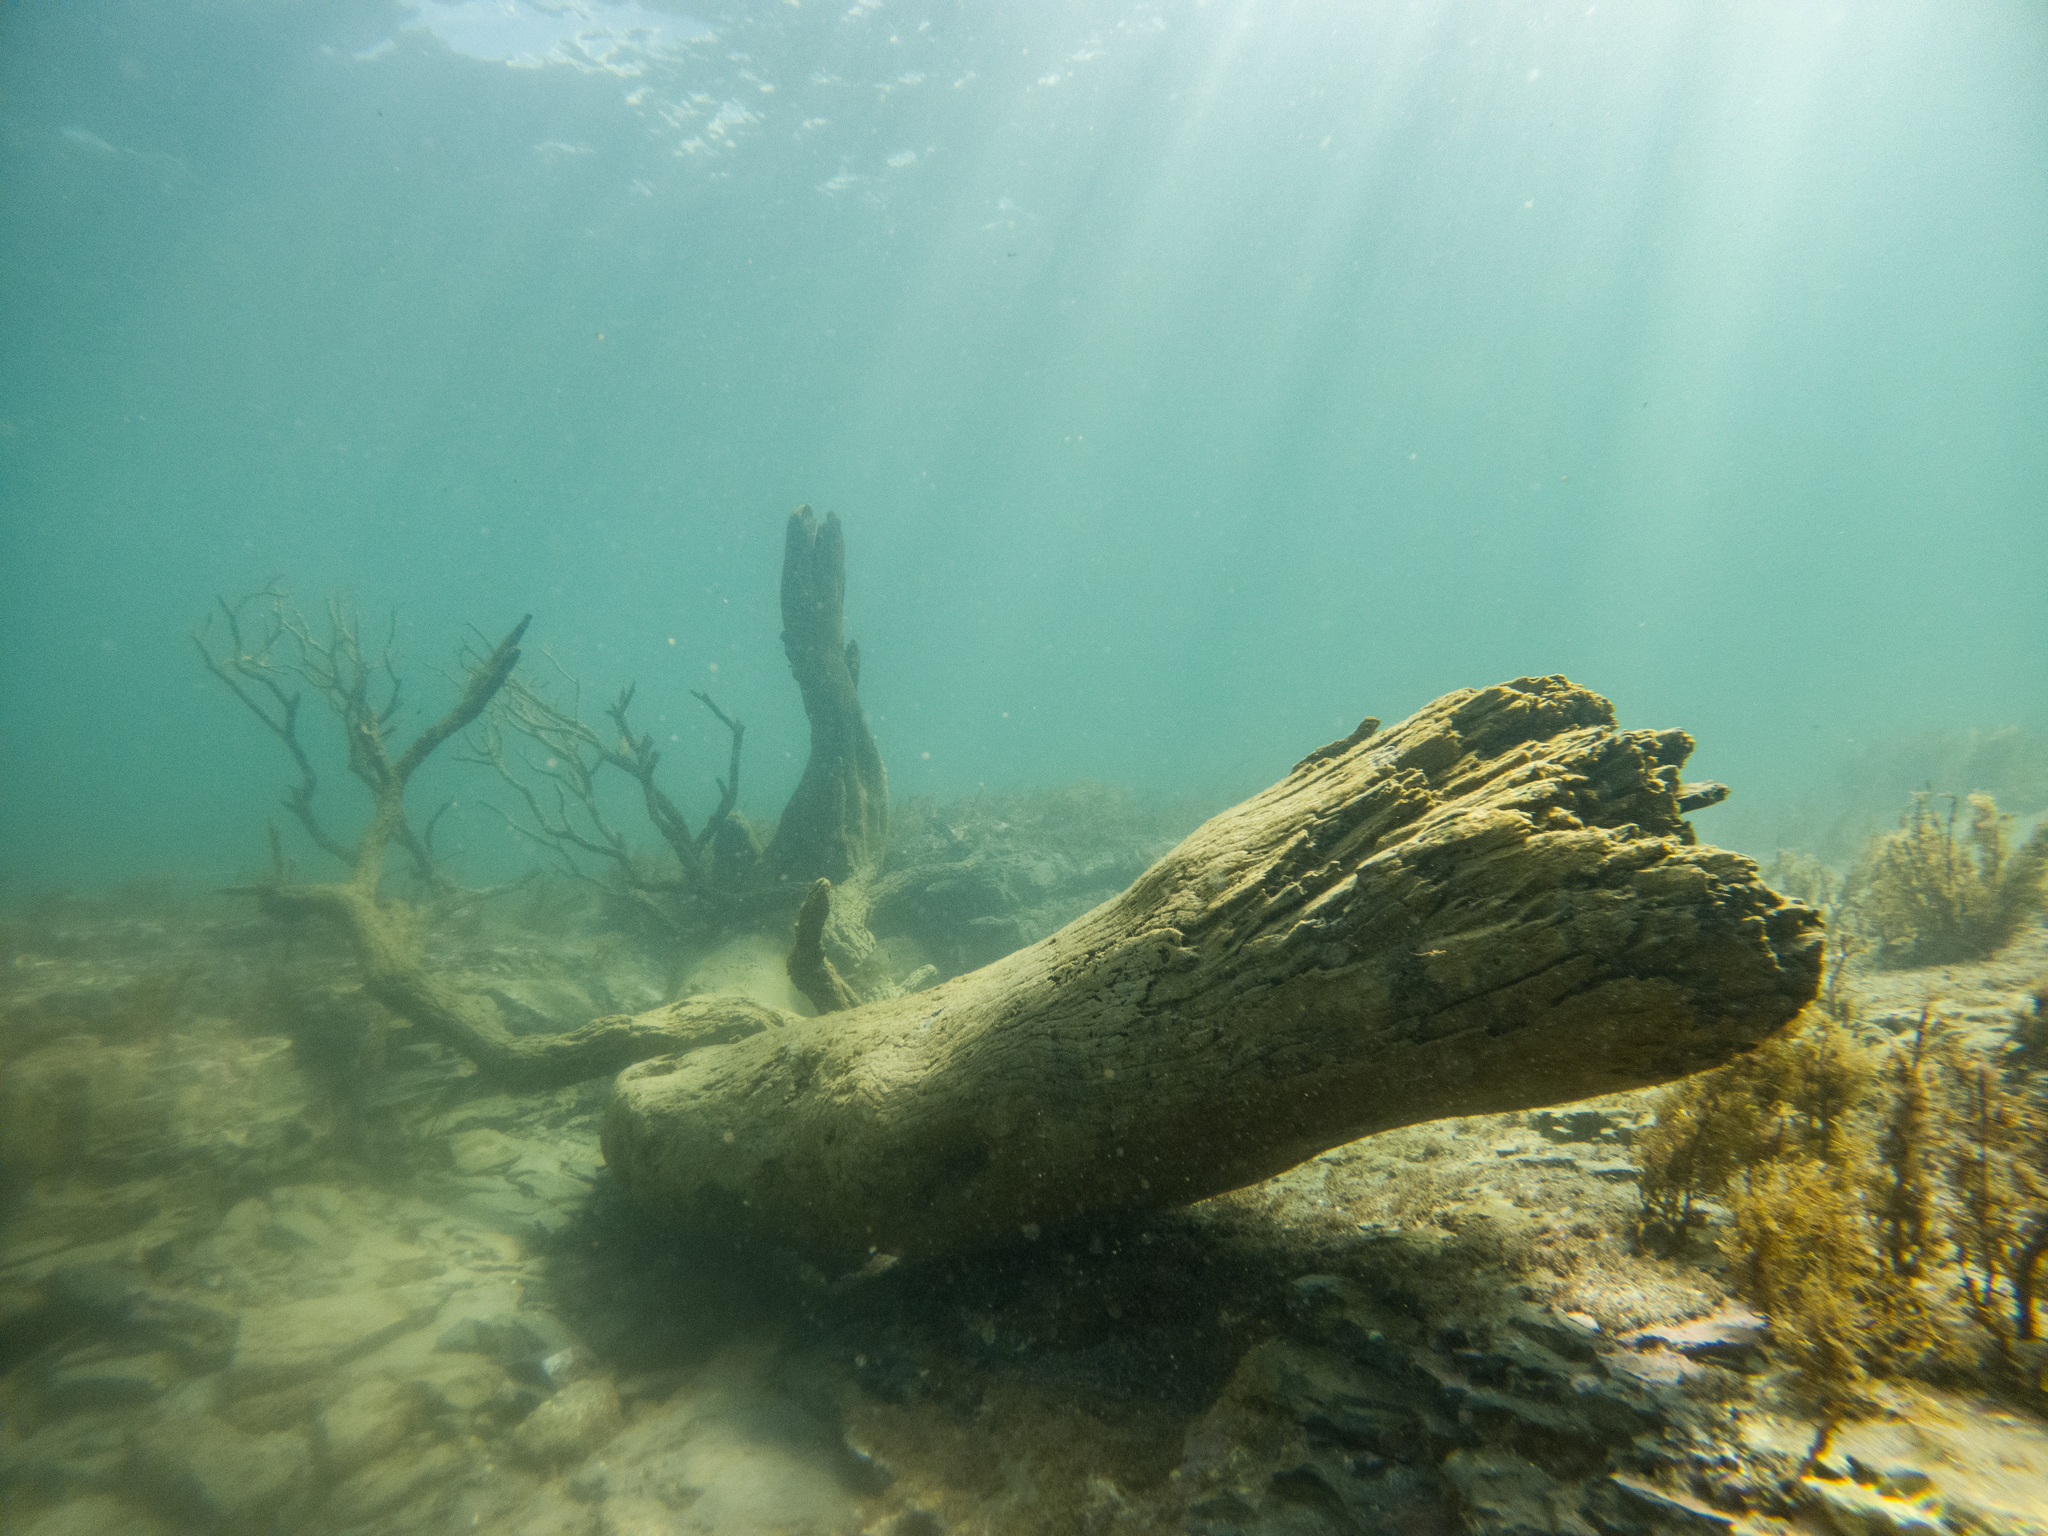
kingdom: Animalia
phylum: Chordata
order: Perciformes
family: Sparidae
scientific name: Sparidae
